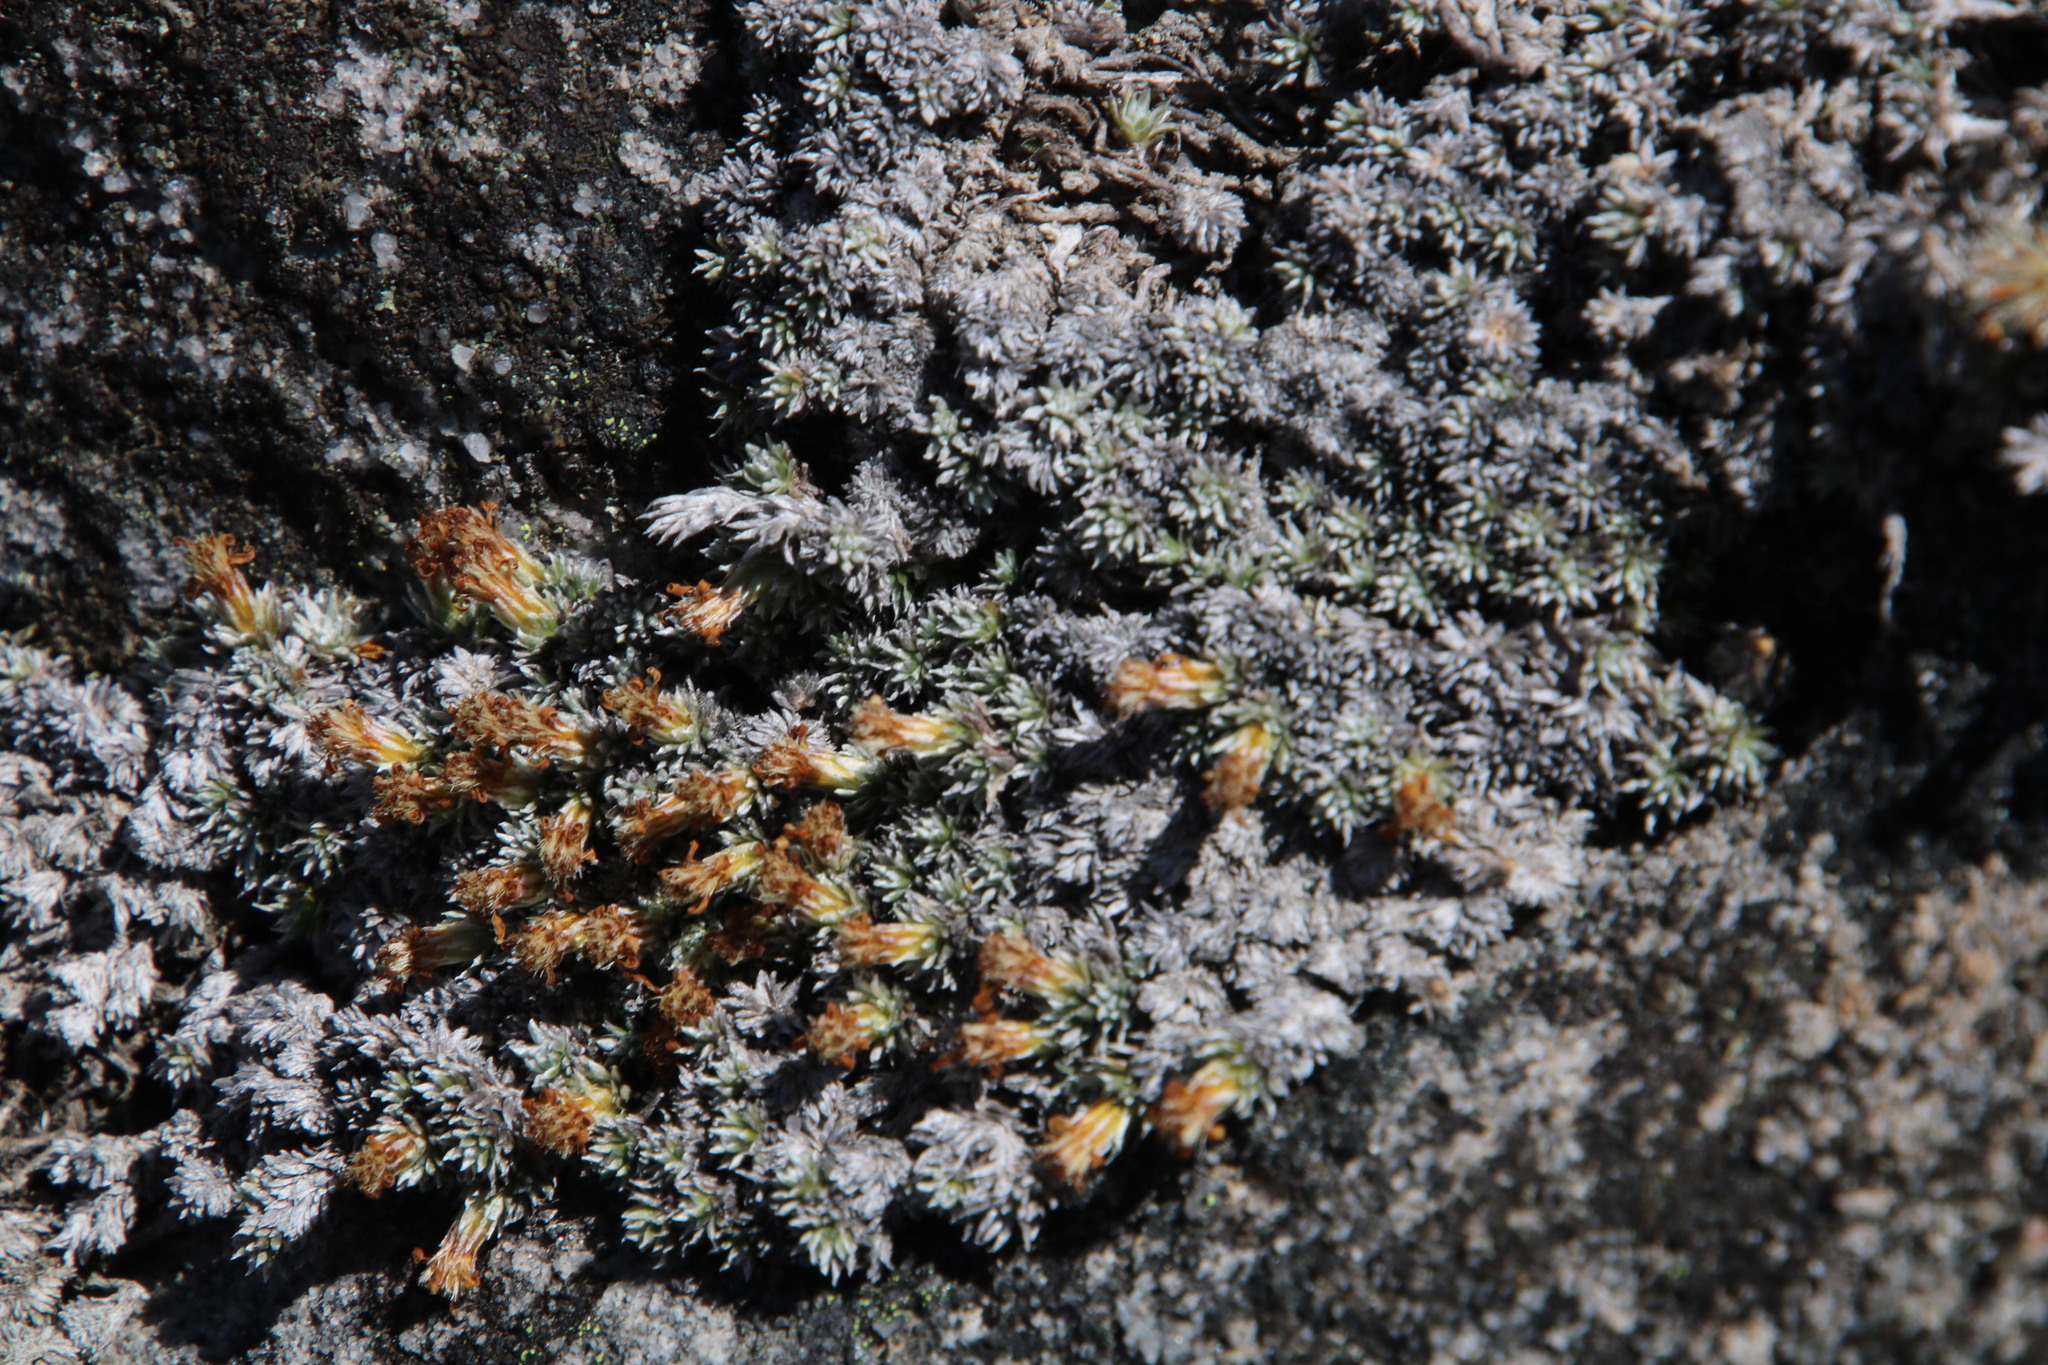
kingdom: Plantae
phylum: Tracheophyta
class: Magnoliopsida
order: Asterales
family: Asteraceae
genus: Muscosomorphe
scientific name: Muscosomorphe aretioides
